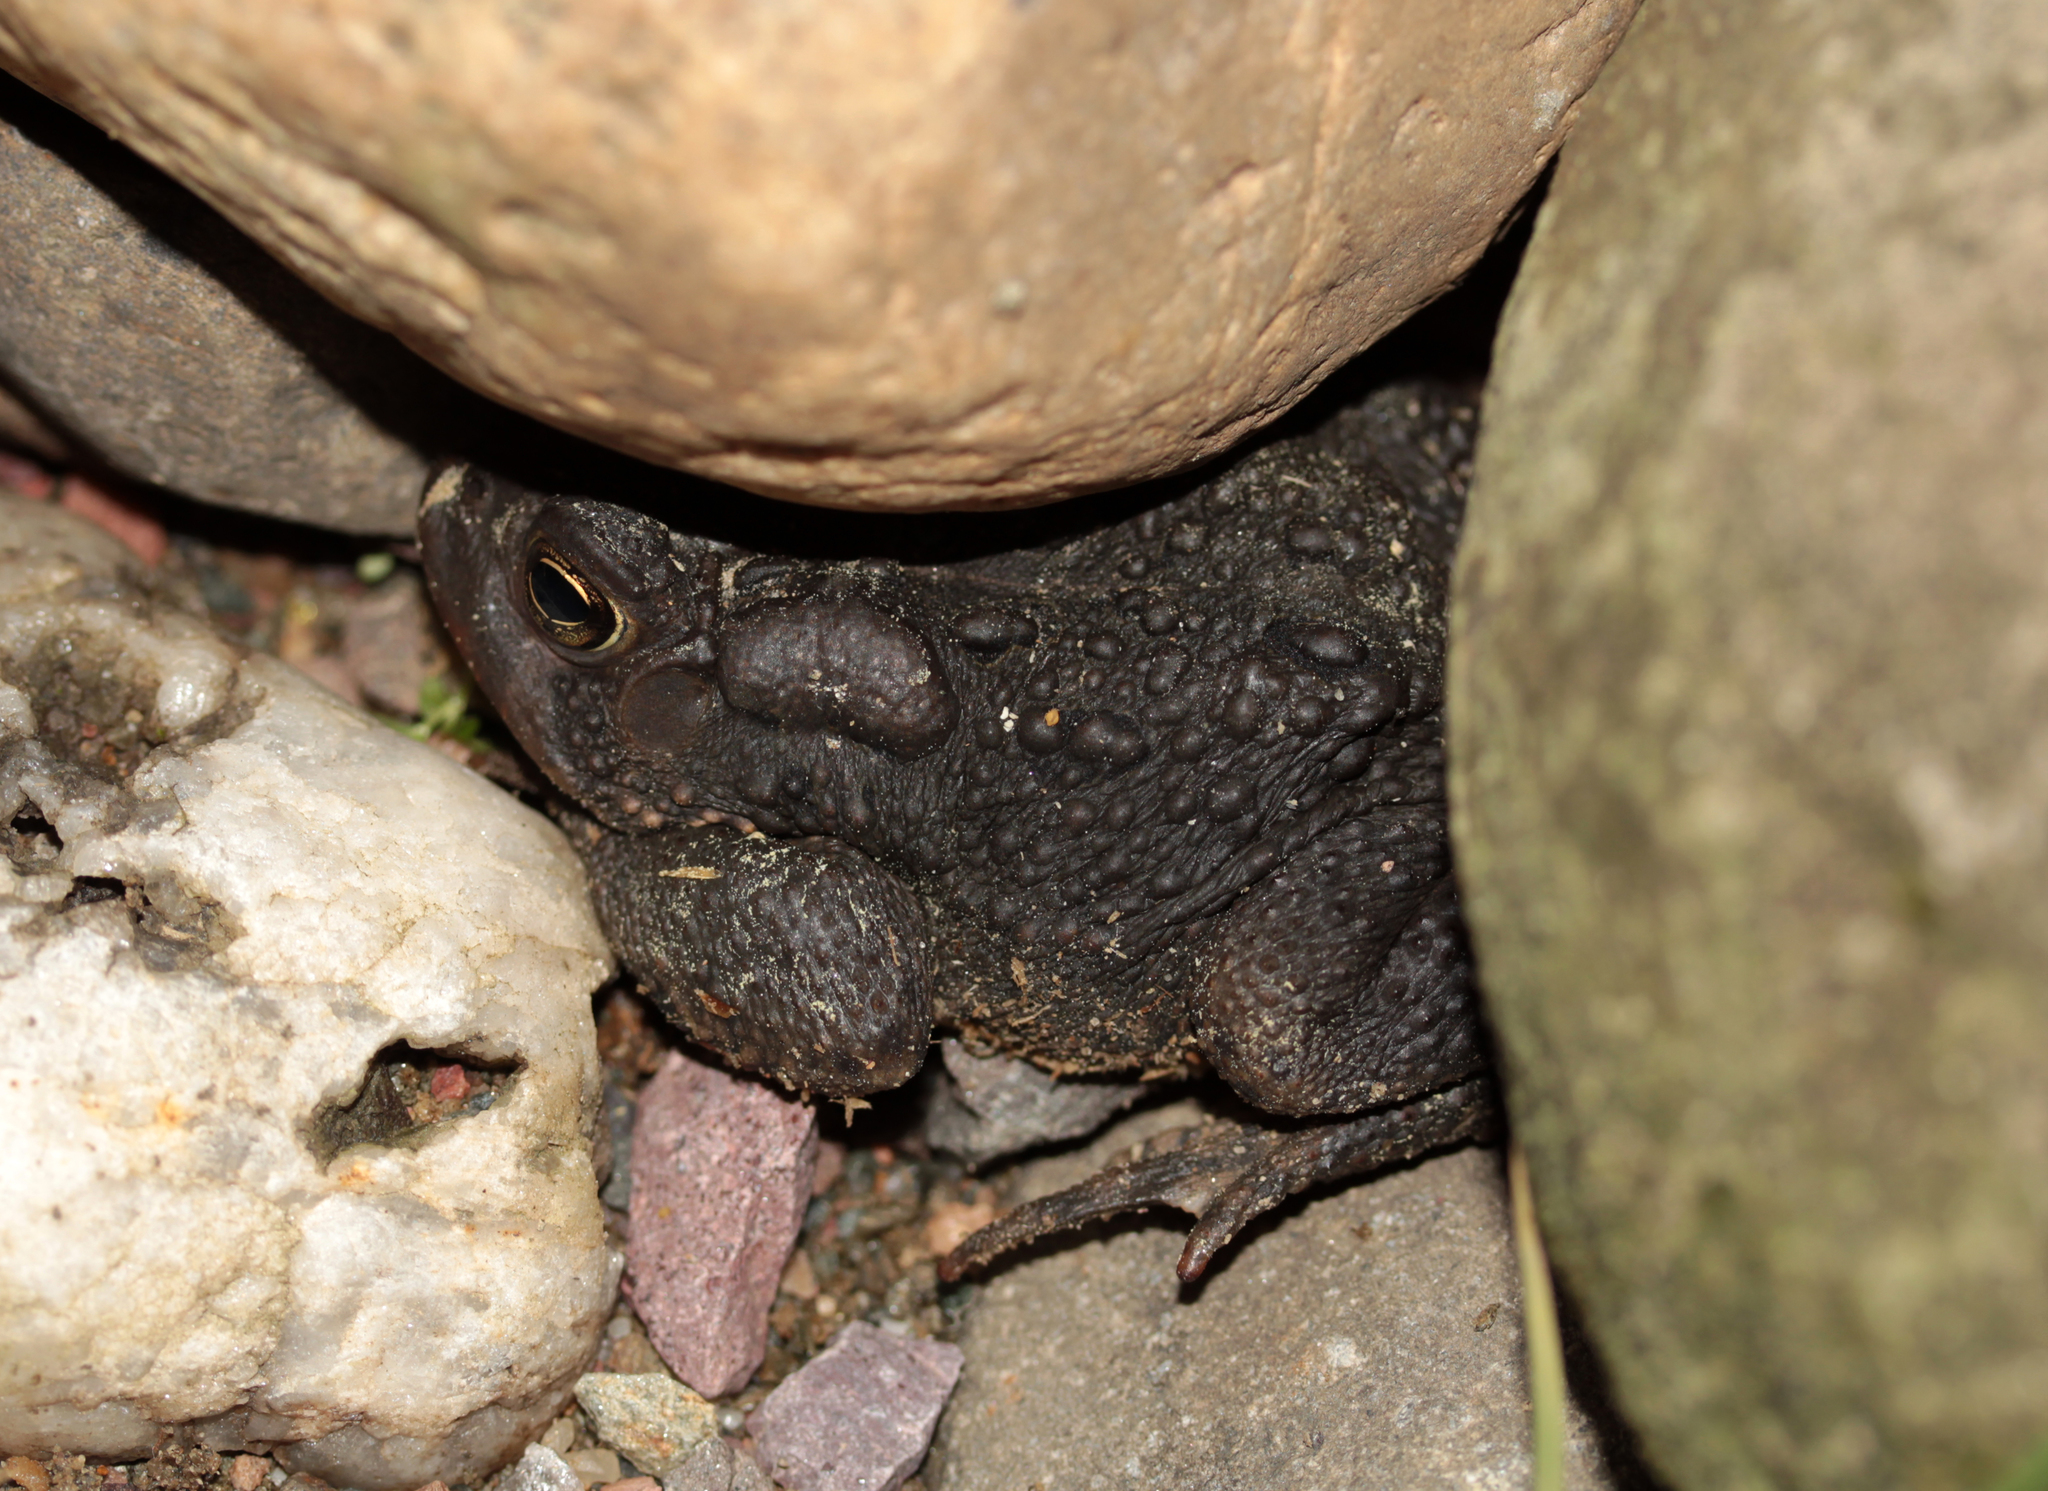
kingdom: Animalia
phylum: Chordata
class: Amphibia
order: Anura
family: Bufonidae
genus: Anaxyrus
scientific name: Anaxyrus americanus
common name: American toad
